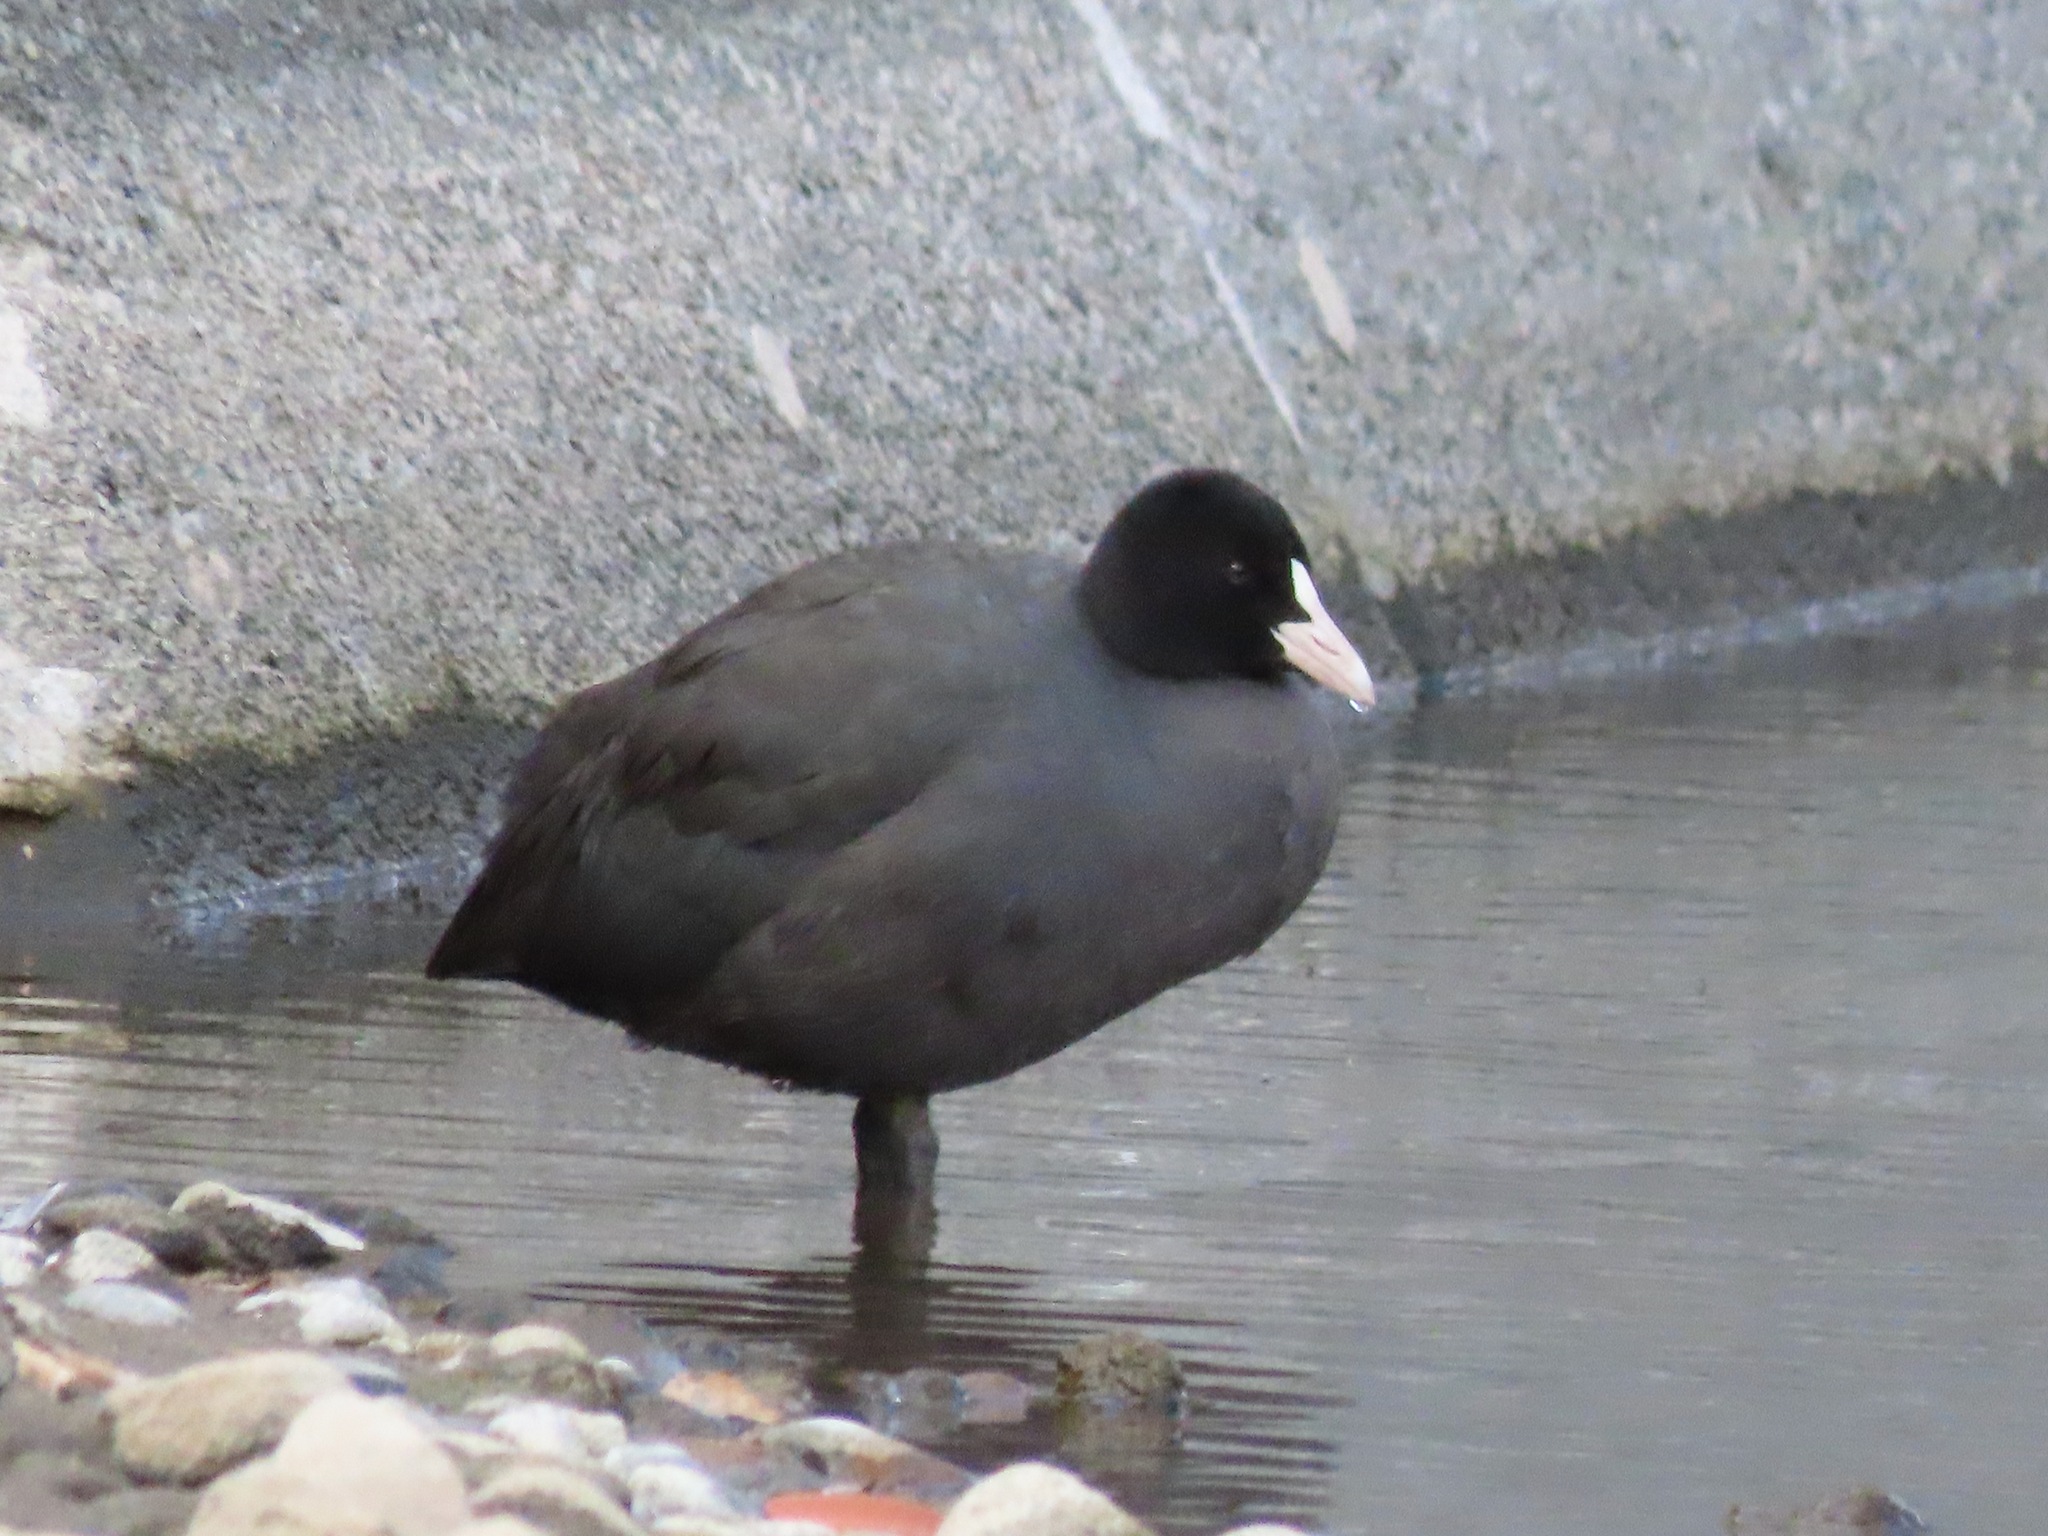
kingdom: Animalia
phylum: Chordata
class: Aves
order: Gruiformes
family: Rallidae
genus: Fulica
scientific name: Fulica atra
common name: Eurasian coot
